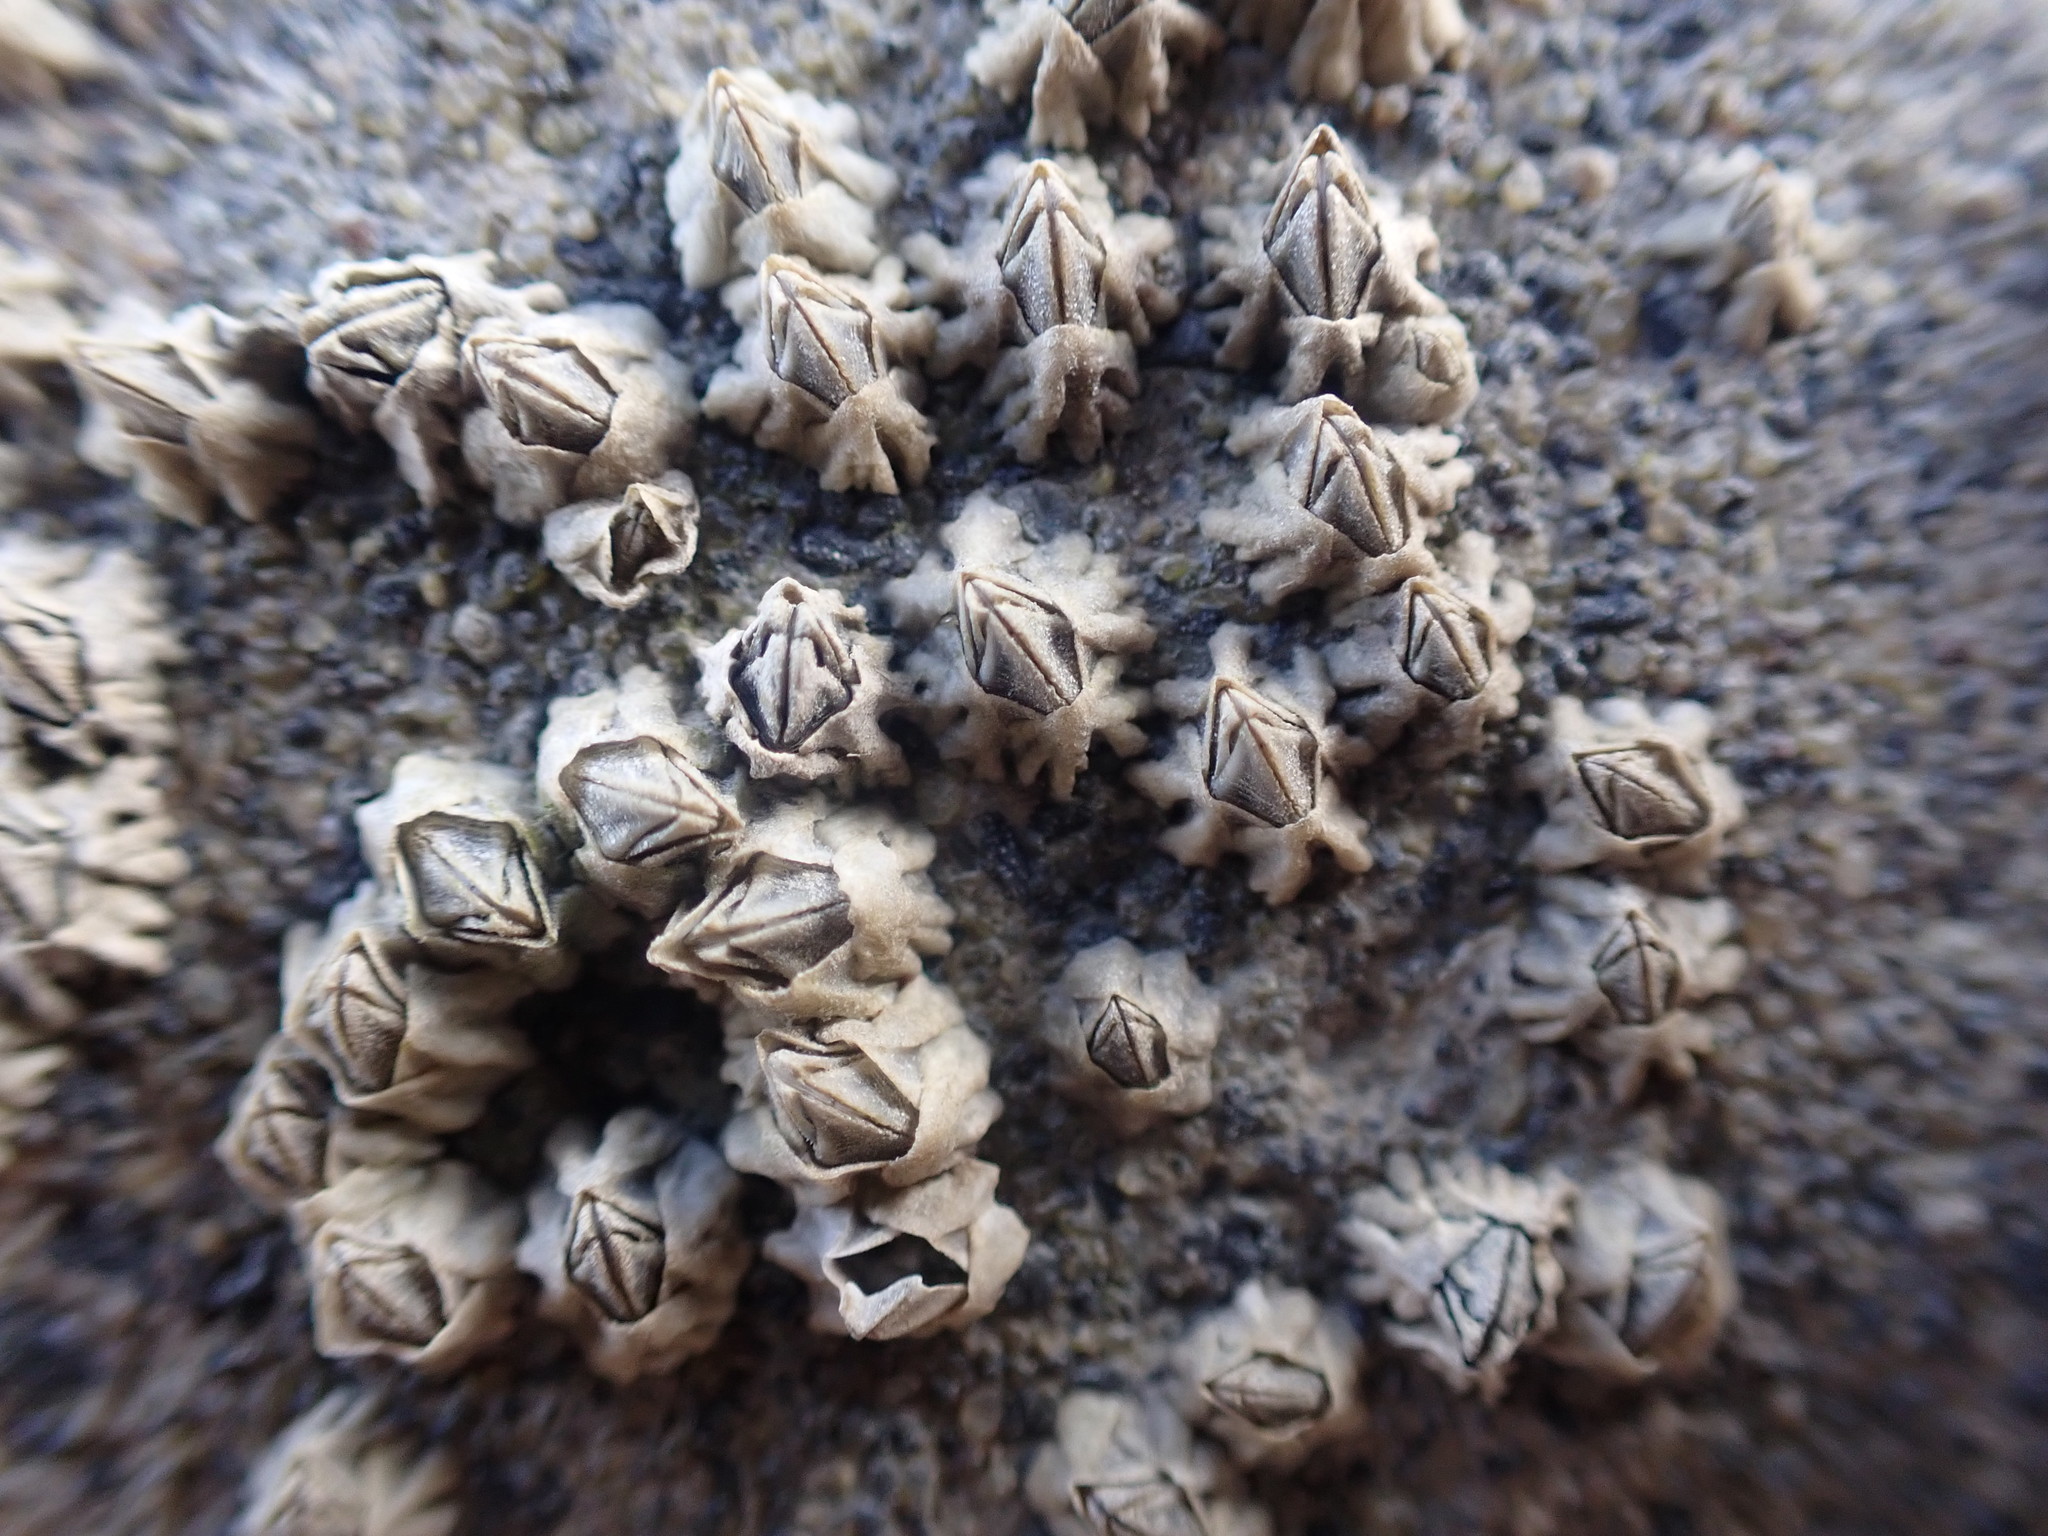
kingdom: Animalia
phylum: Arthropoda
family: Elminiidae
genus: Austrominius
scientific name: Austrominius modestus
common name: Australasian barnacle
